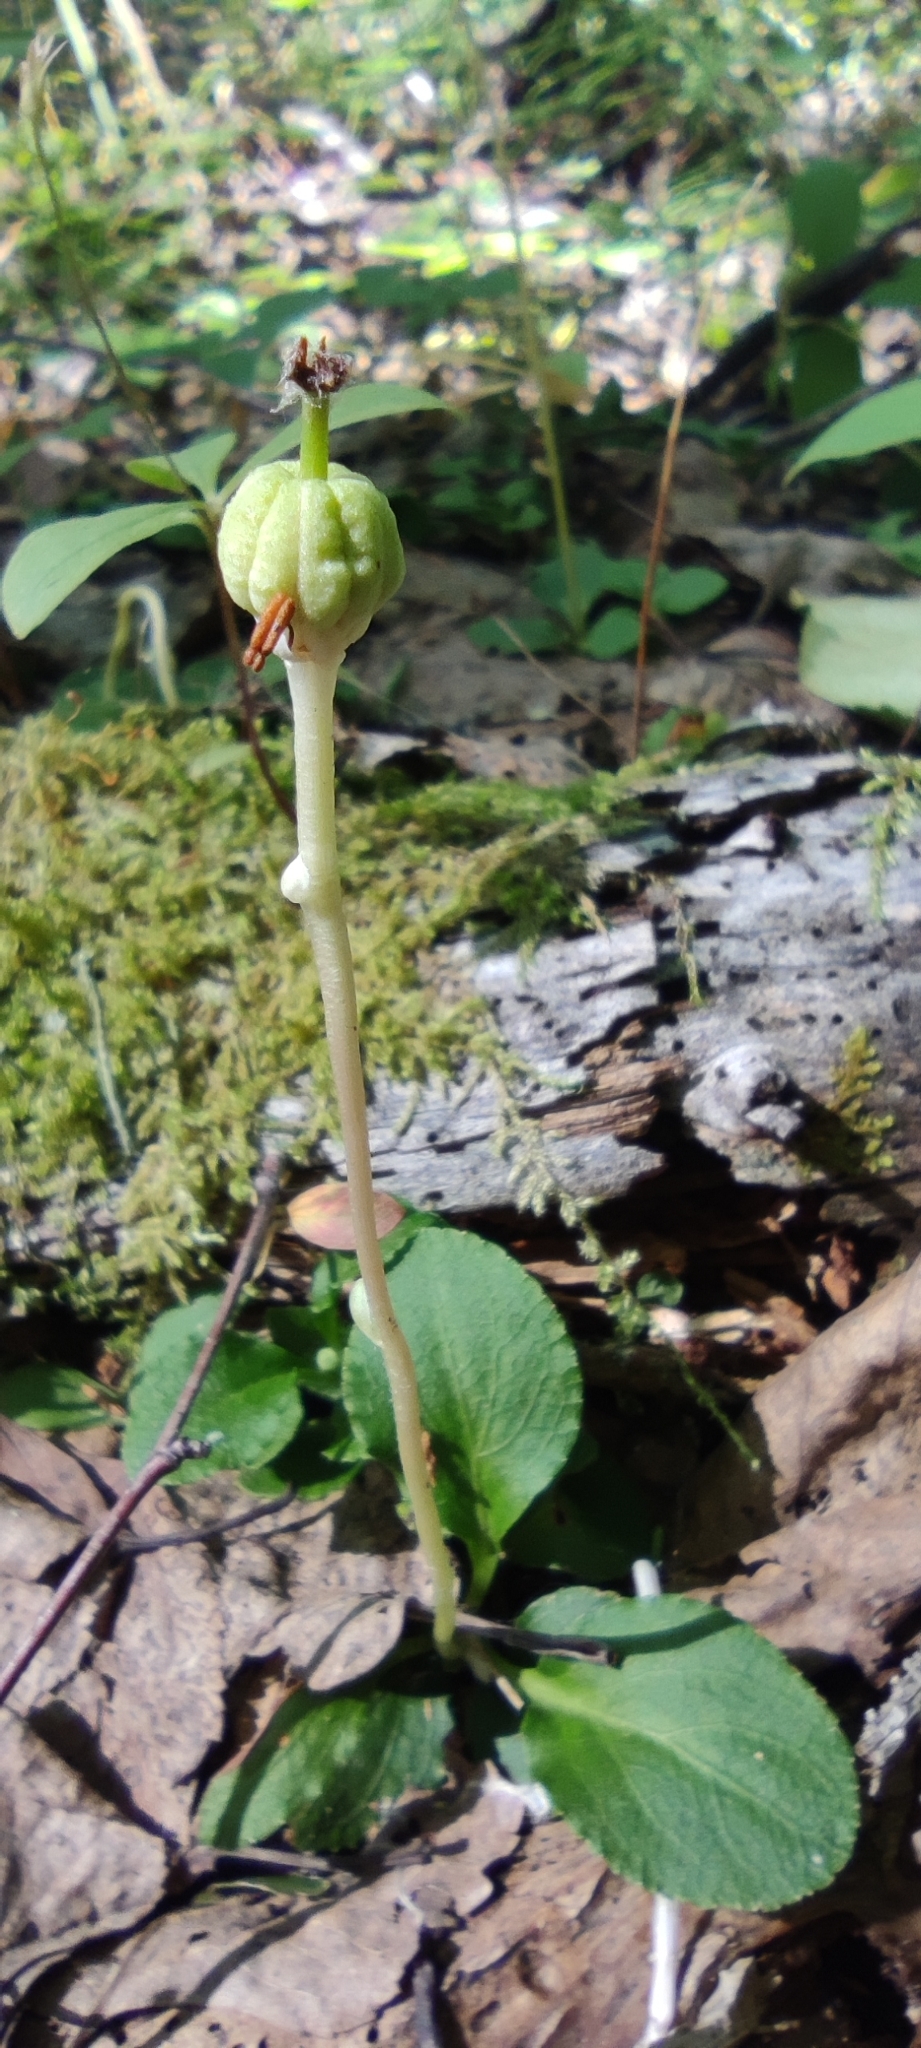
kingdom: Plantae
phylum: Tracheophyta
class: Magnoliopsida
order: Ericales
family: Ericaceae
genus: Moneses
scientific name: Moneses uniflora
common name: One-flowered wintergreen
